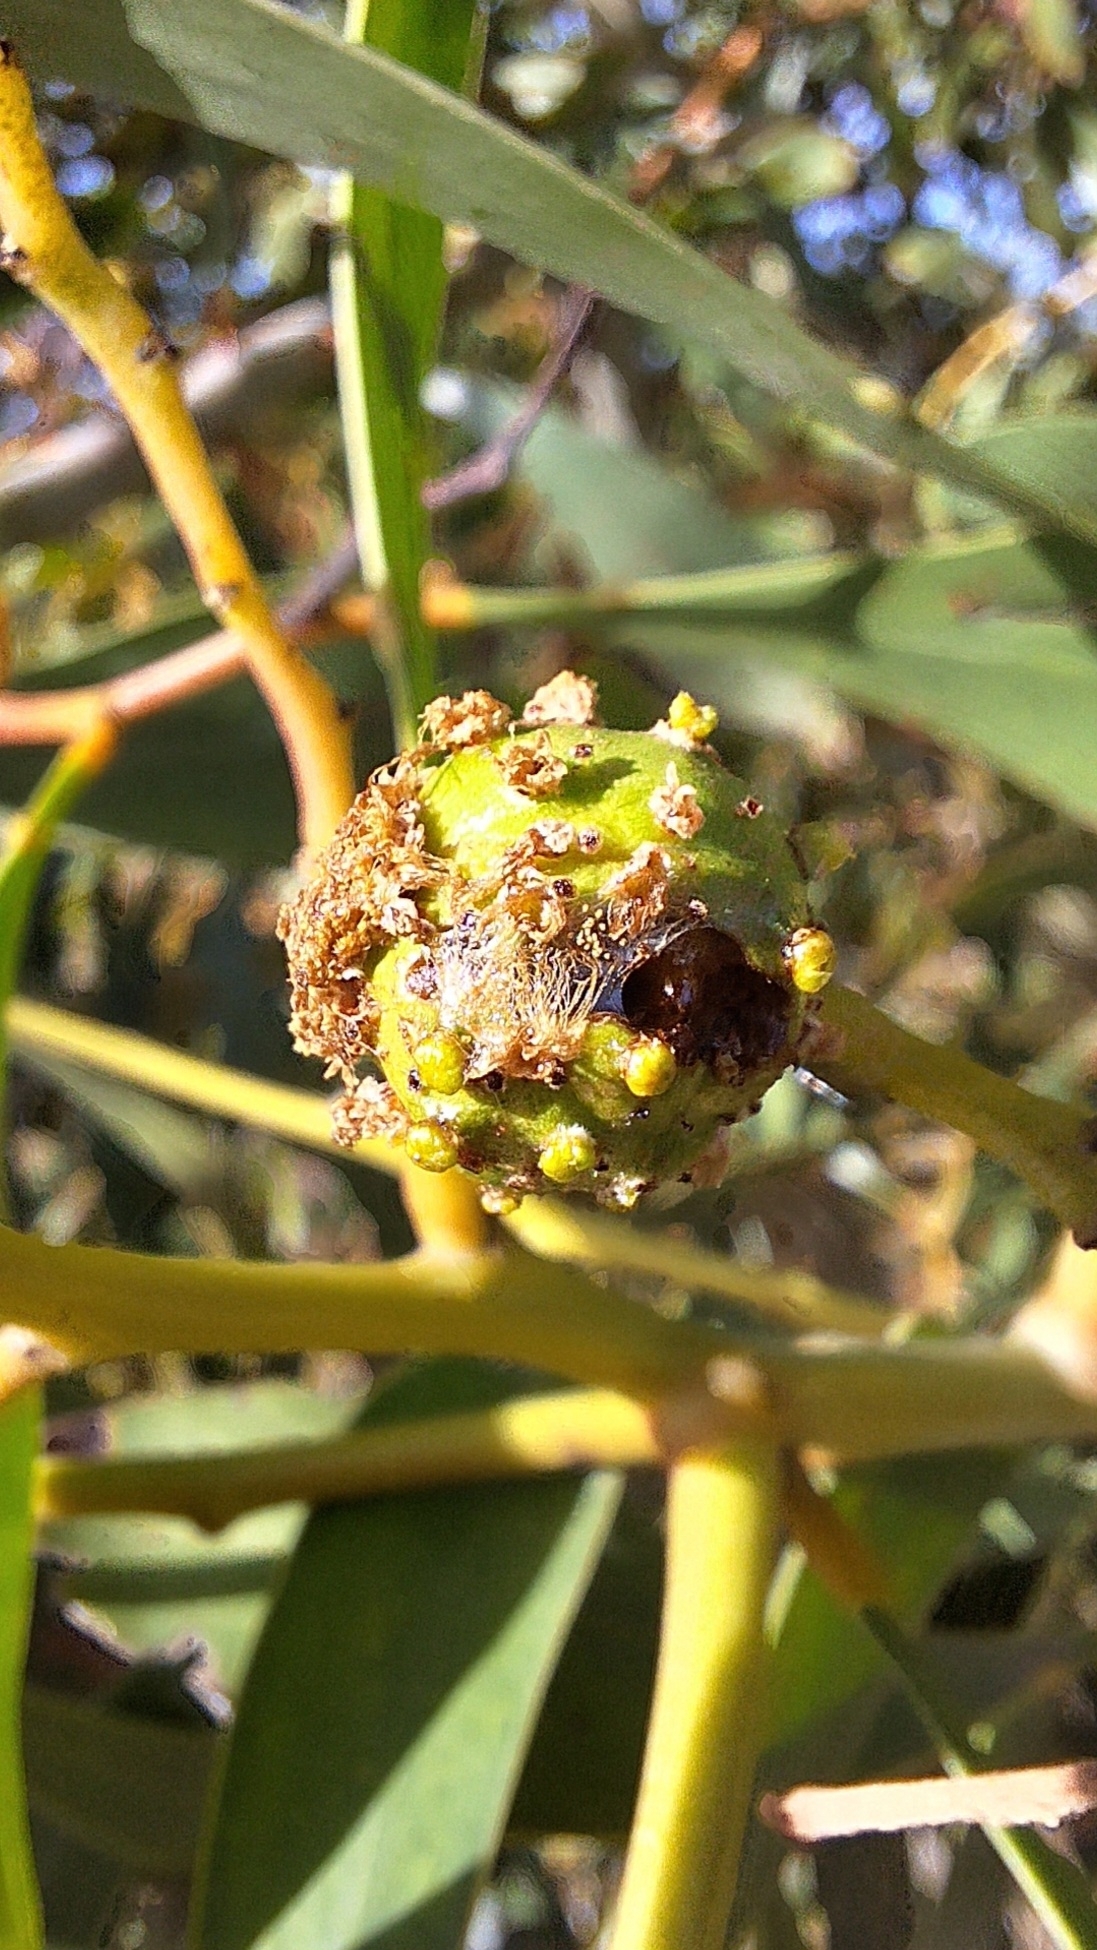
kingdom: Animalia
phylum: Arthropoda
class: Insecta
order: Hymenoptera
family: Pteromalidae
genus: Trichilogaster
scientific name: Trichilogaster signiventris
